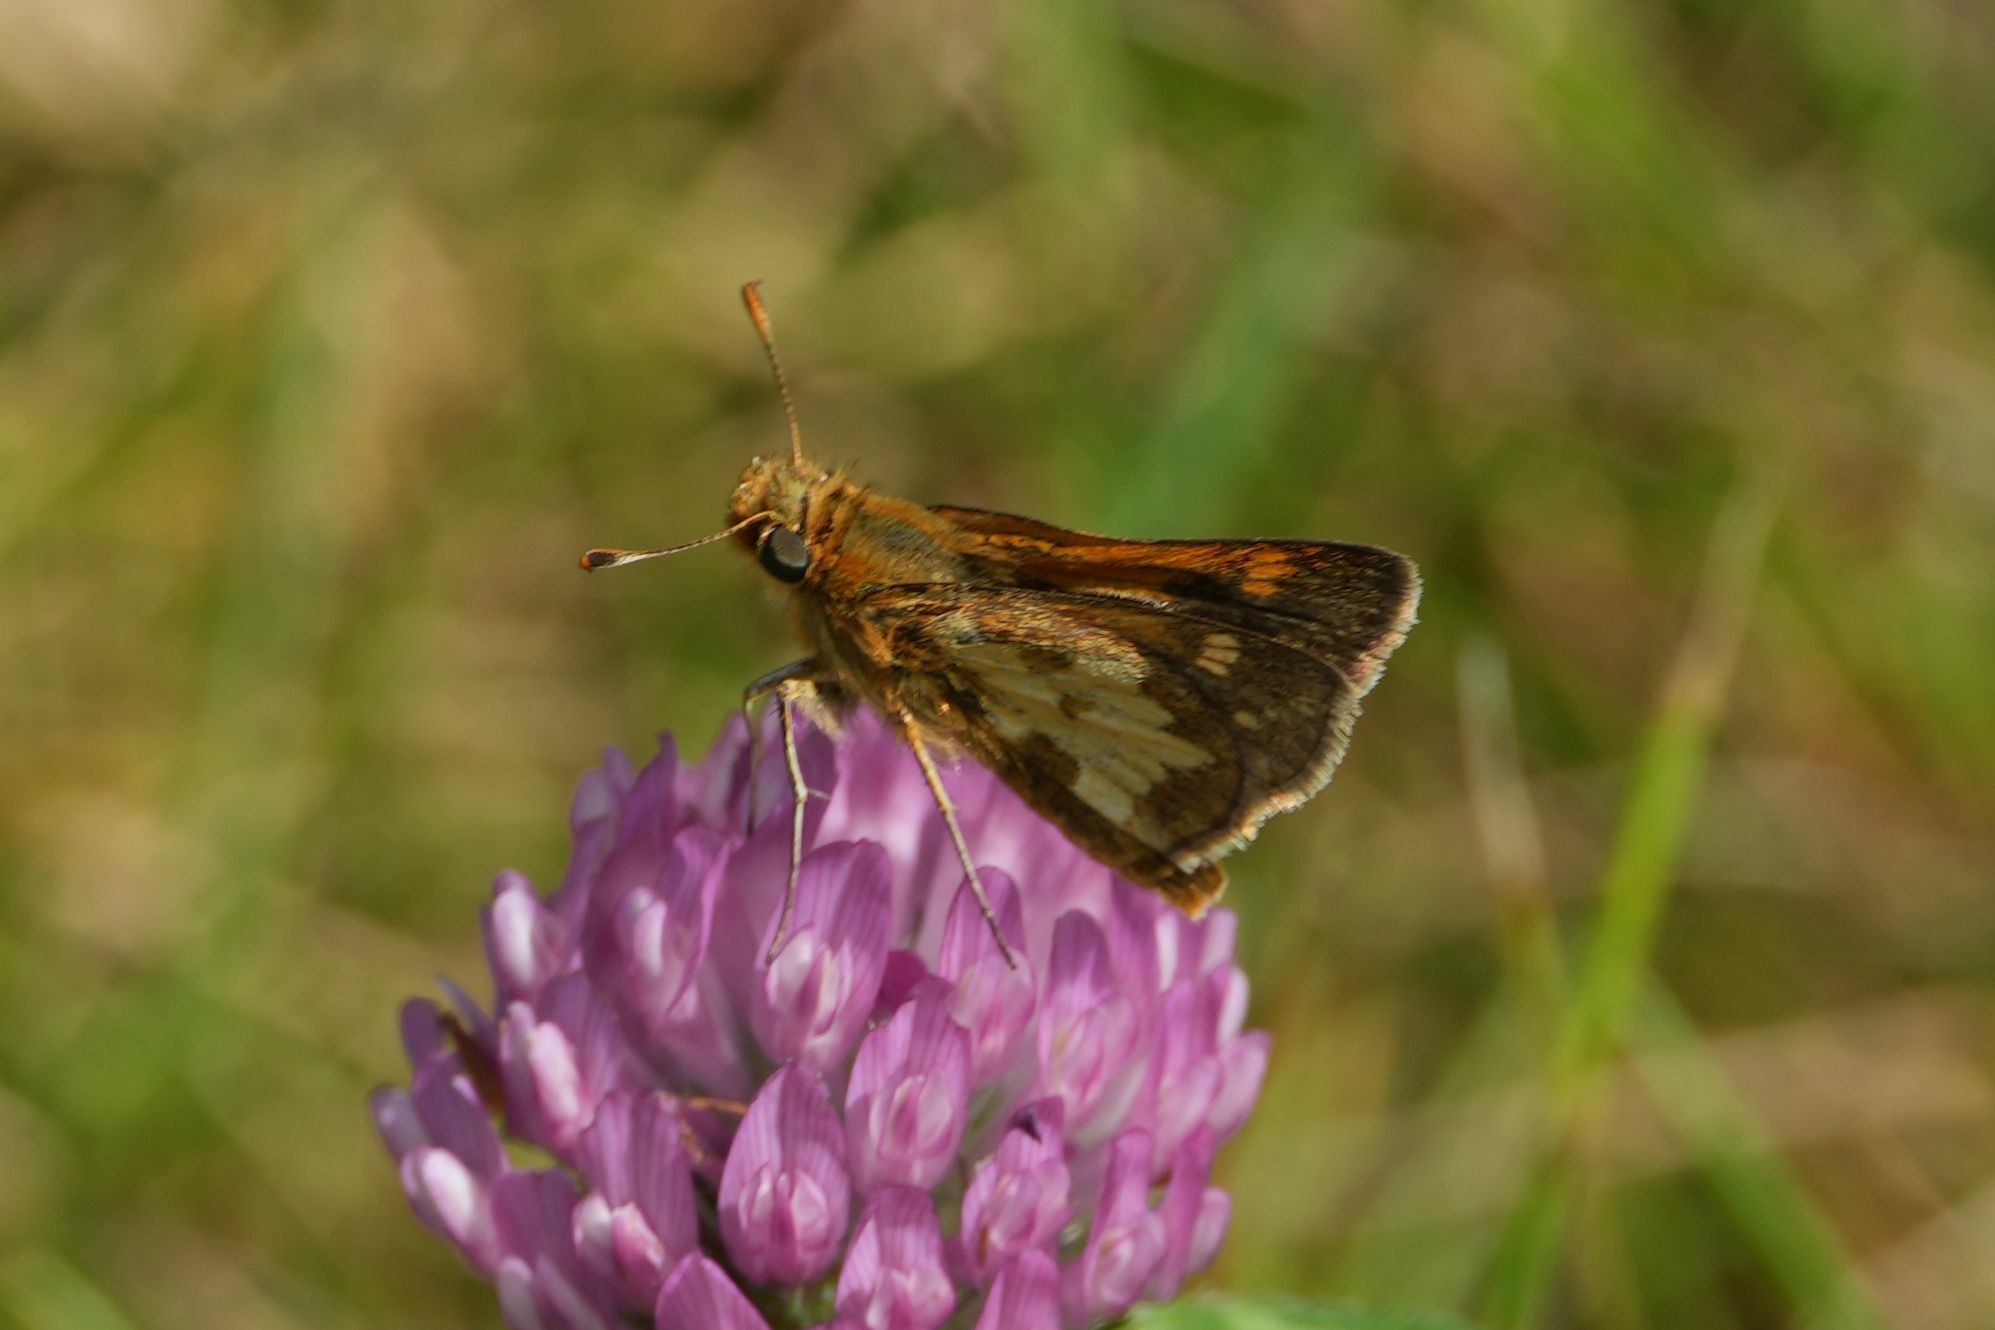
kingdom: Animalia
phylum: Arthropoda
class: Insecta
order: Lepidoptera
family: Hesperiidae
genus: Polites
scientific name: Polites coras
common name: Peck's skipper
